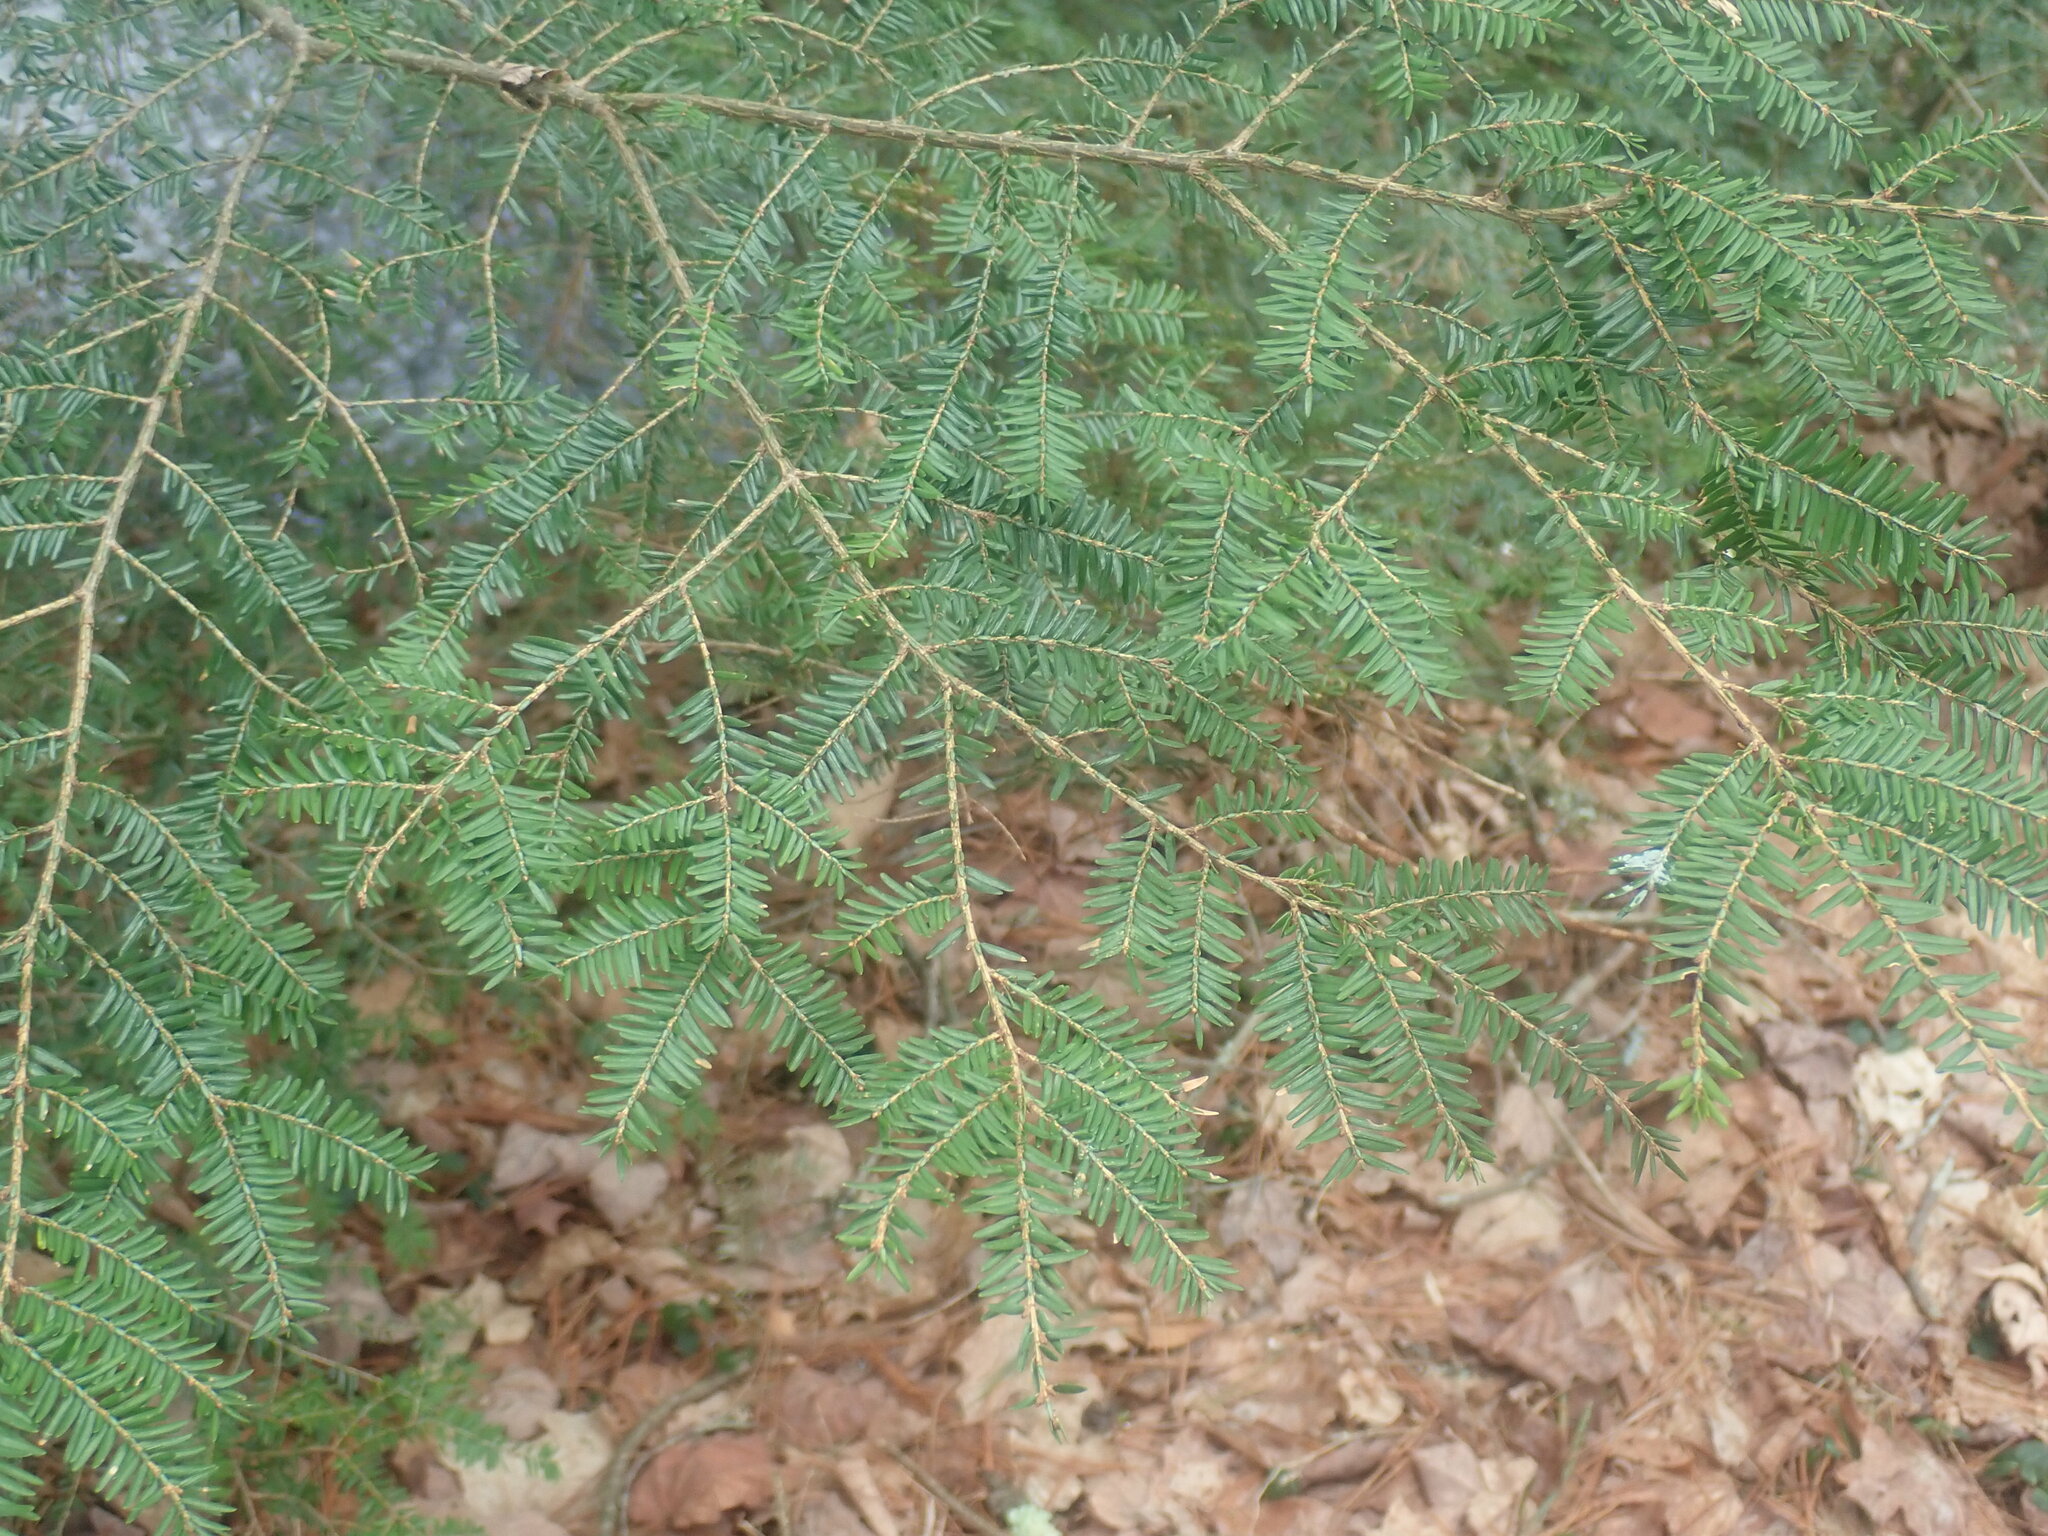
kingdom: Plantae
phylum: Tracheophyta
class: Pinopsida
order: Pinales
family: Pinaceae
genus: Tsuga
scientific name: Tsuga canadensis
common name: Eastern hemlock
